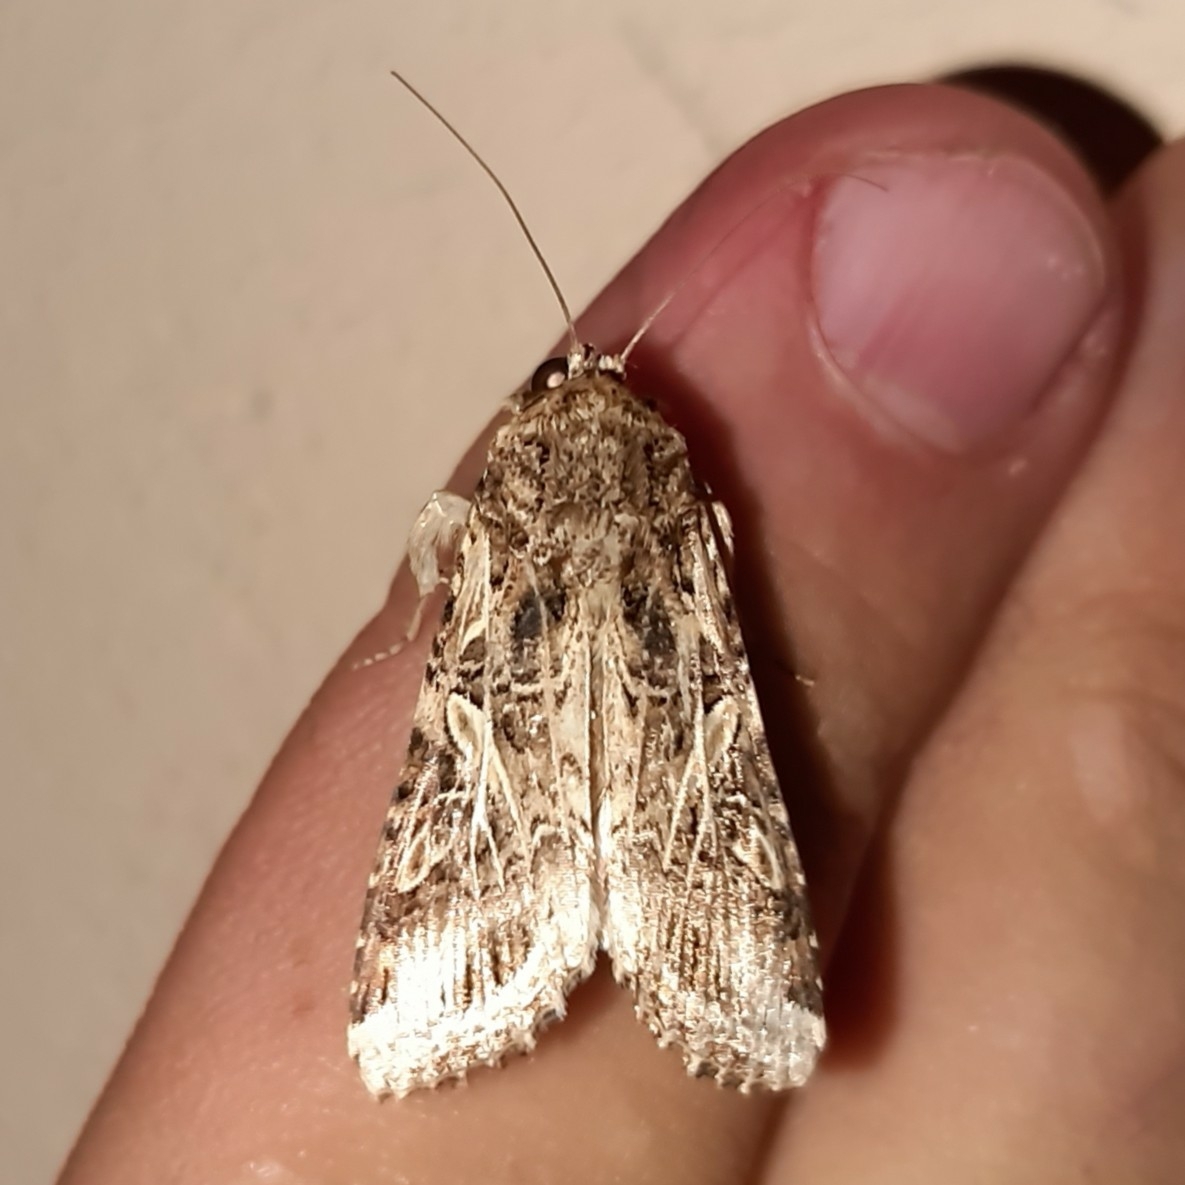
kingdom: Animalia
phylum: Arthropoda
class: Insecta
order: Lepidoptera
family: Noctuidae
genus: Spodoptera
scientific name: Spodoptera cosmioides
